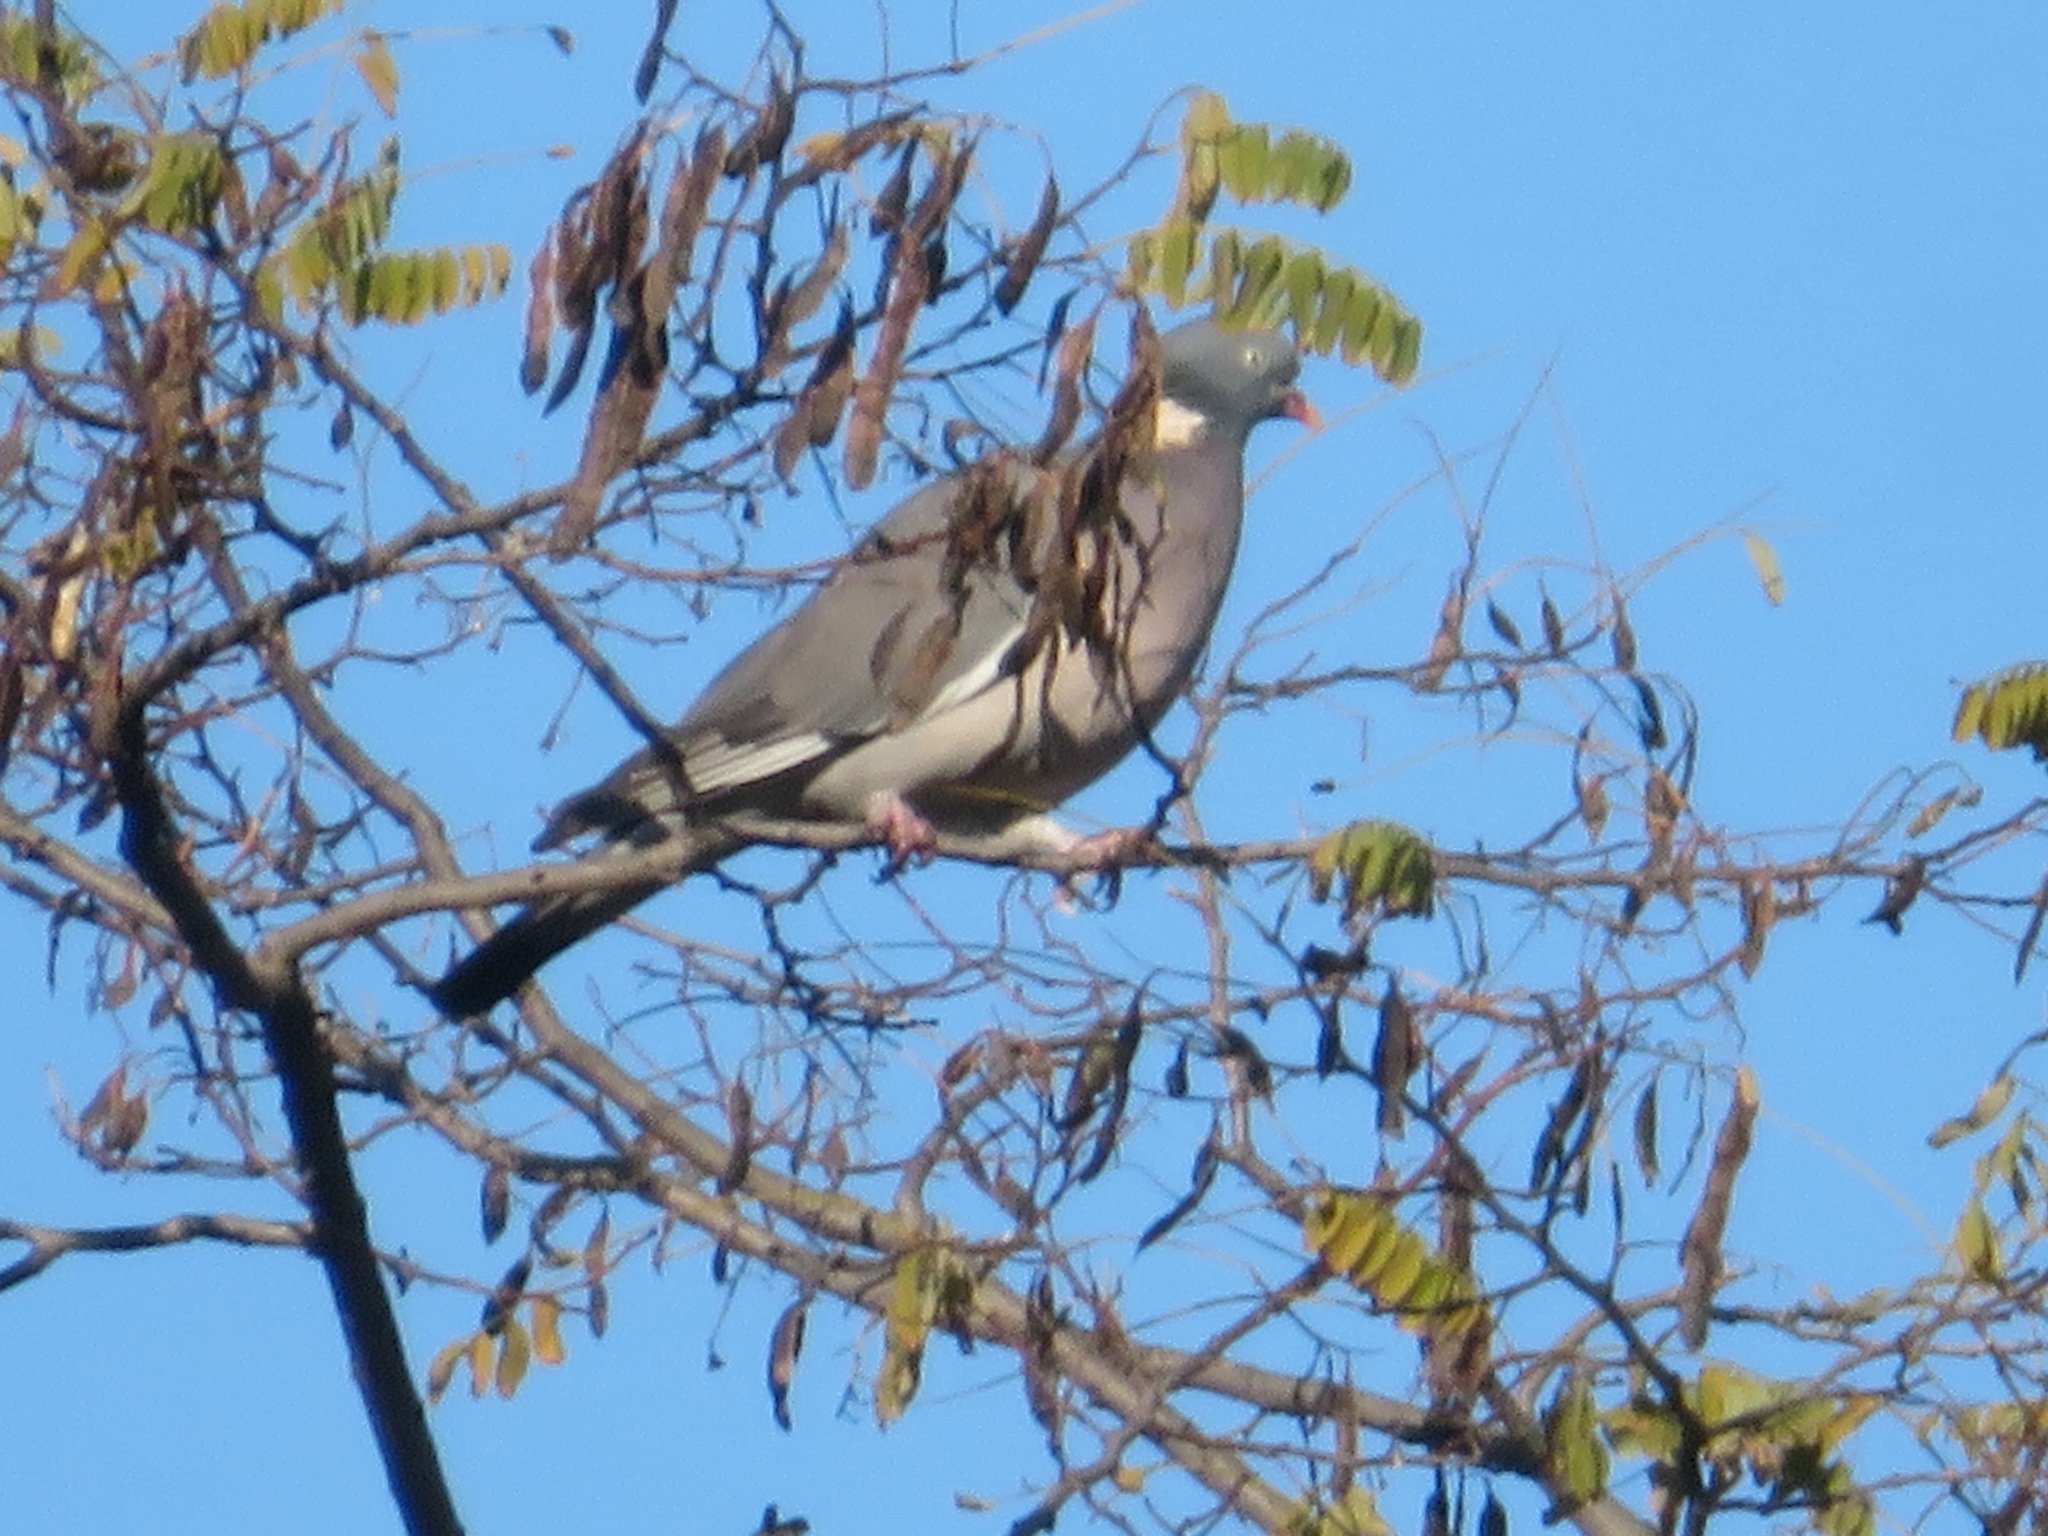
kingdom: Animalia
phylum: Chordata
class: Aves
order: Columbiformes
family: Columbidae
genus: Columba
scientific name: Columba palumbus
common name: Common wood pigeon
